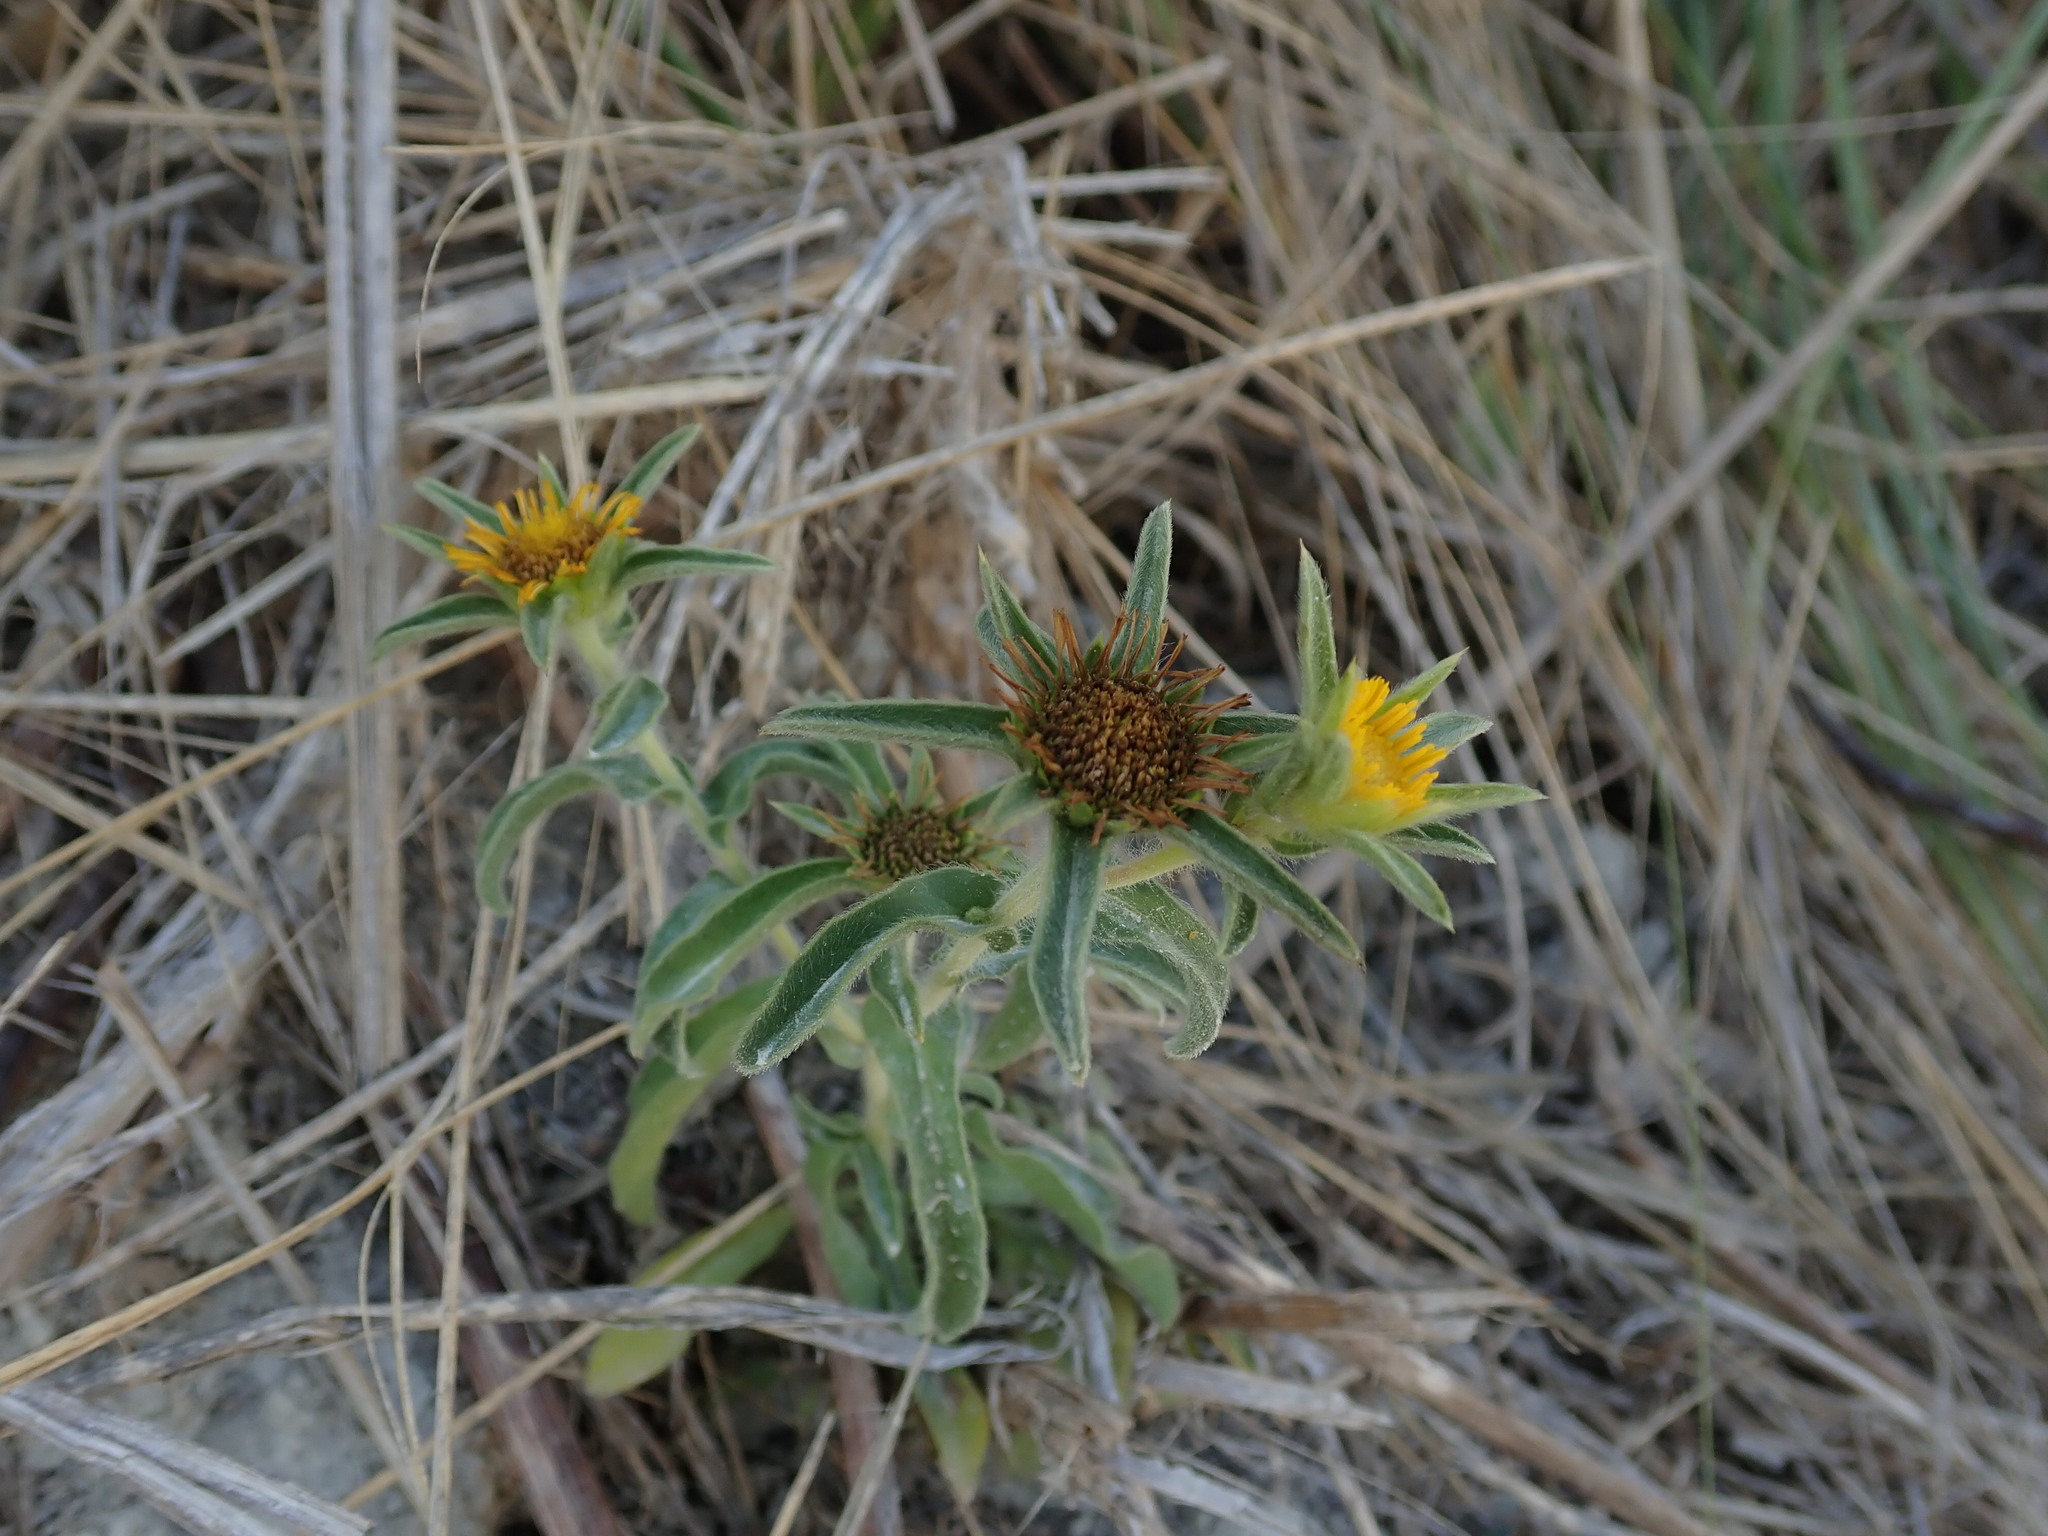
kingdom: Plantae
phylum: Tracheophyta
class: Magnoliopsida
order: Asterales
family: Asteraceae
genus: Pallenis
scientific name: Pallenis spinosa
